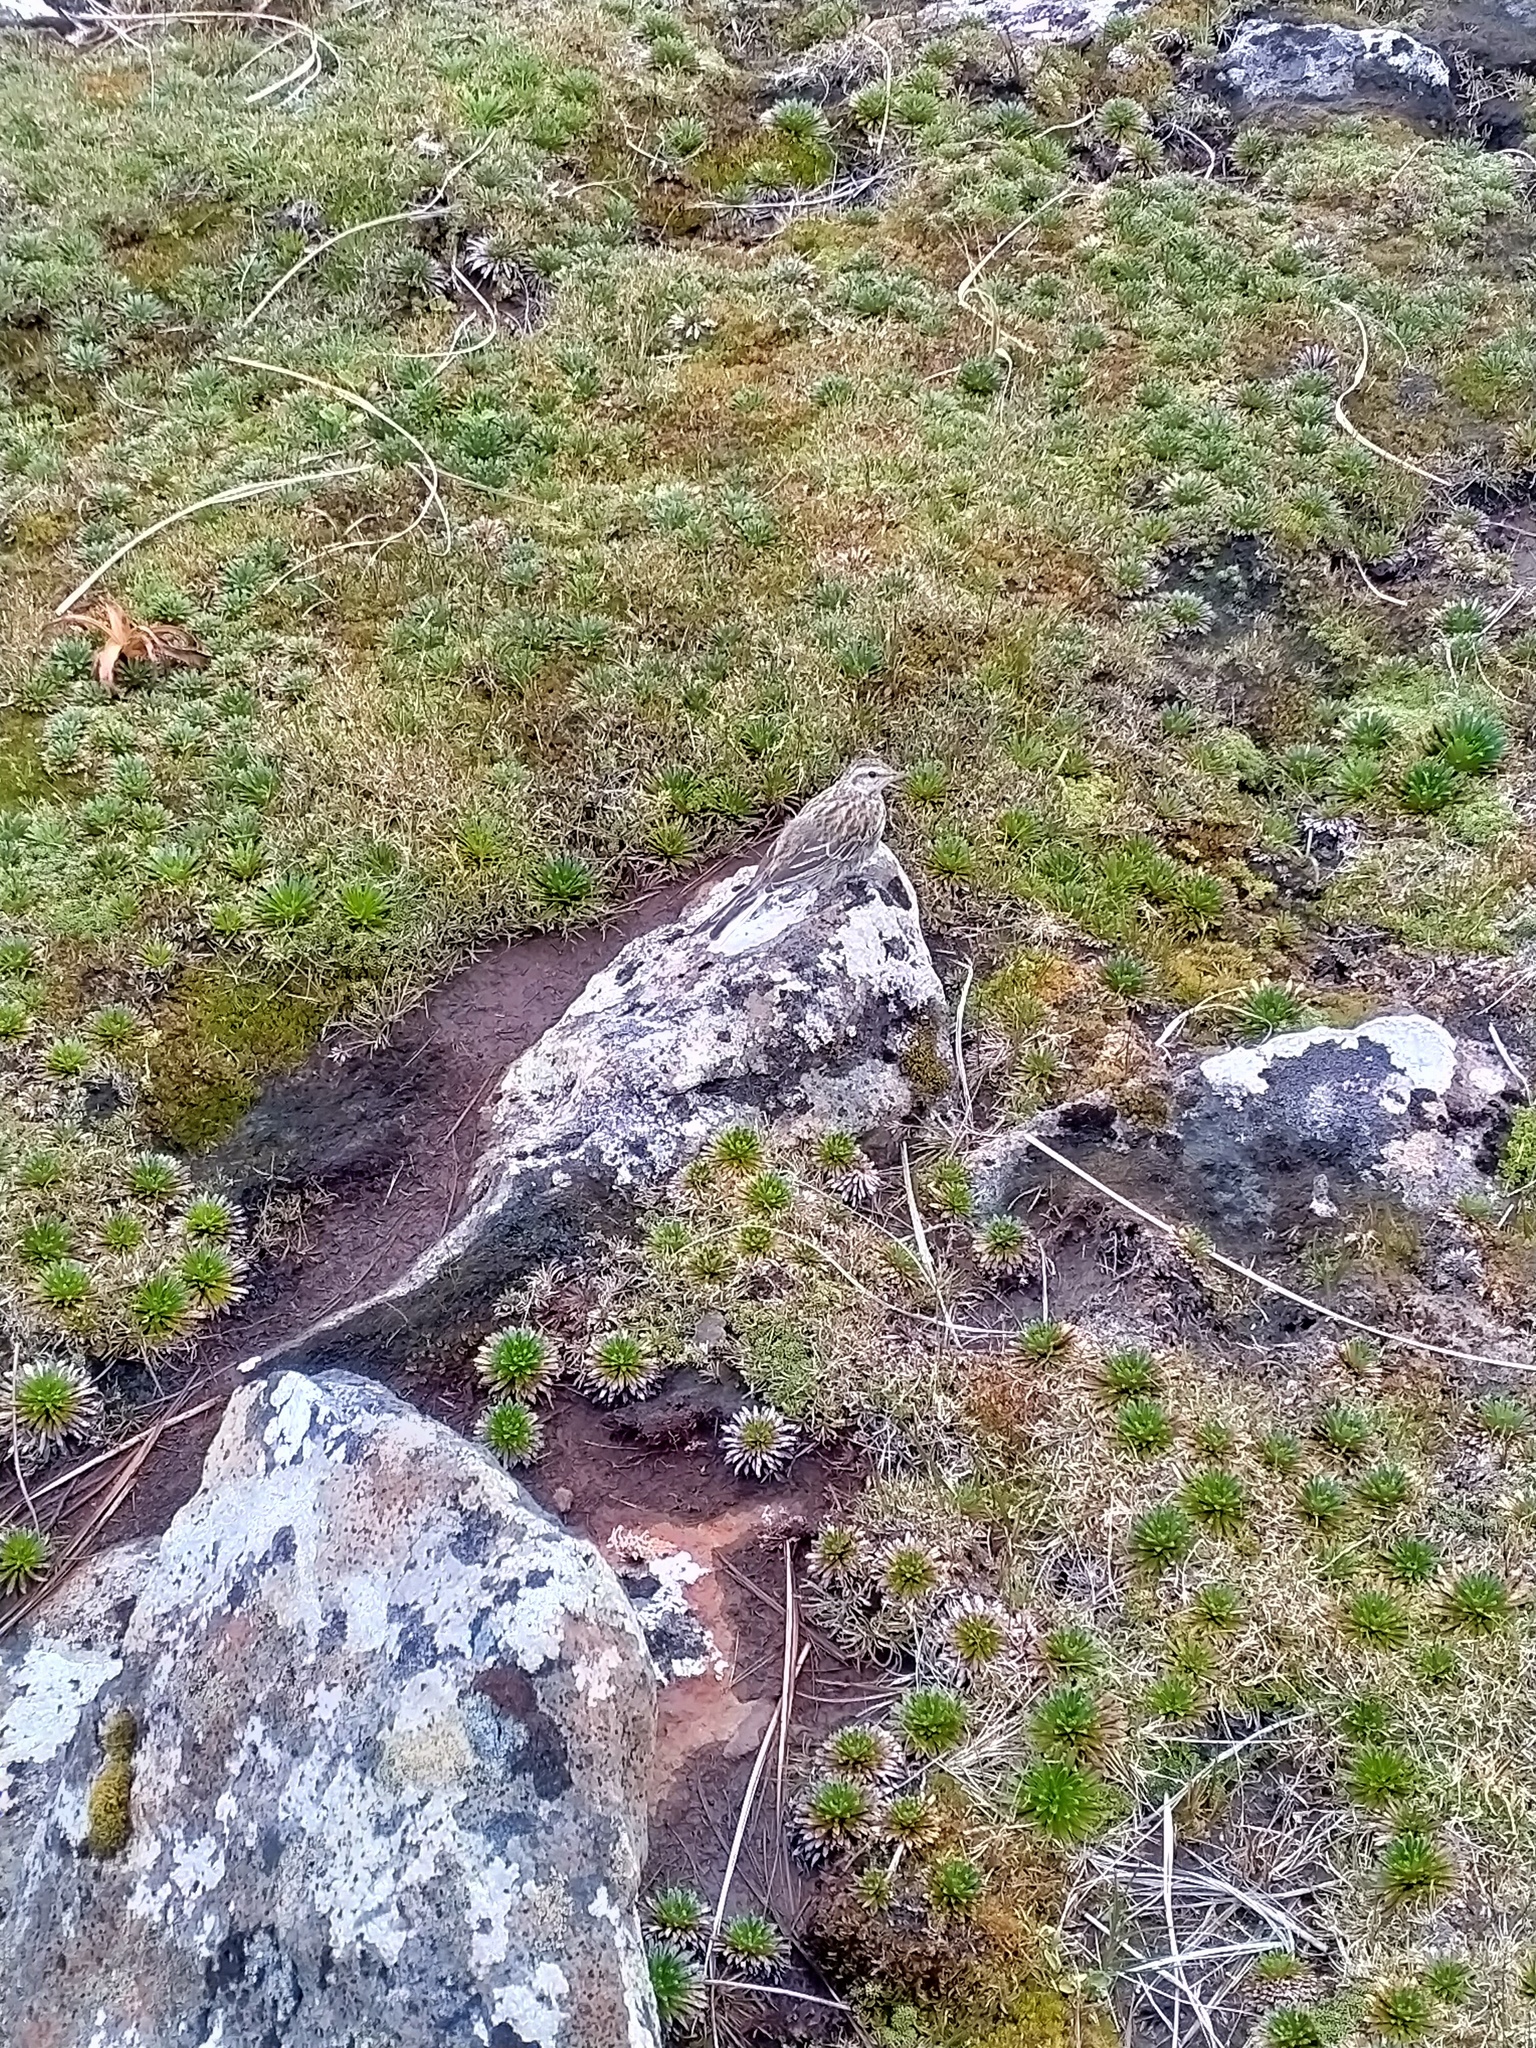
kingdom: Animalia
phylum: Chordata
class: Aves
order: Passeriformes
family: Motacillidae
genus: Anthus
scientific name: Anthus novaeseelandiae
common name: New zealand pipit
